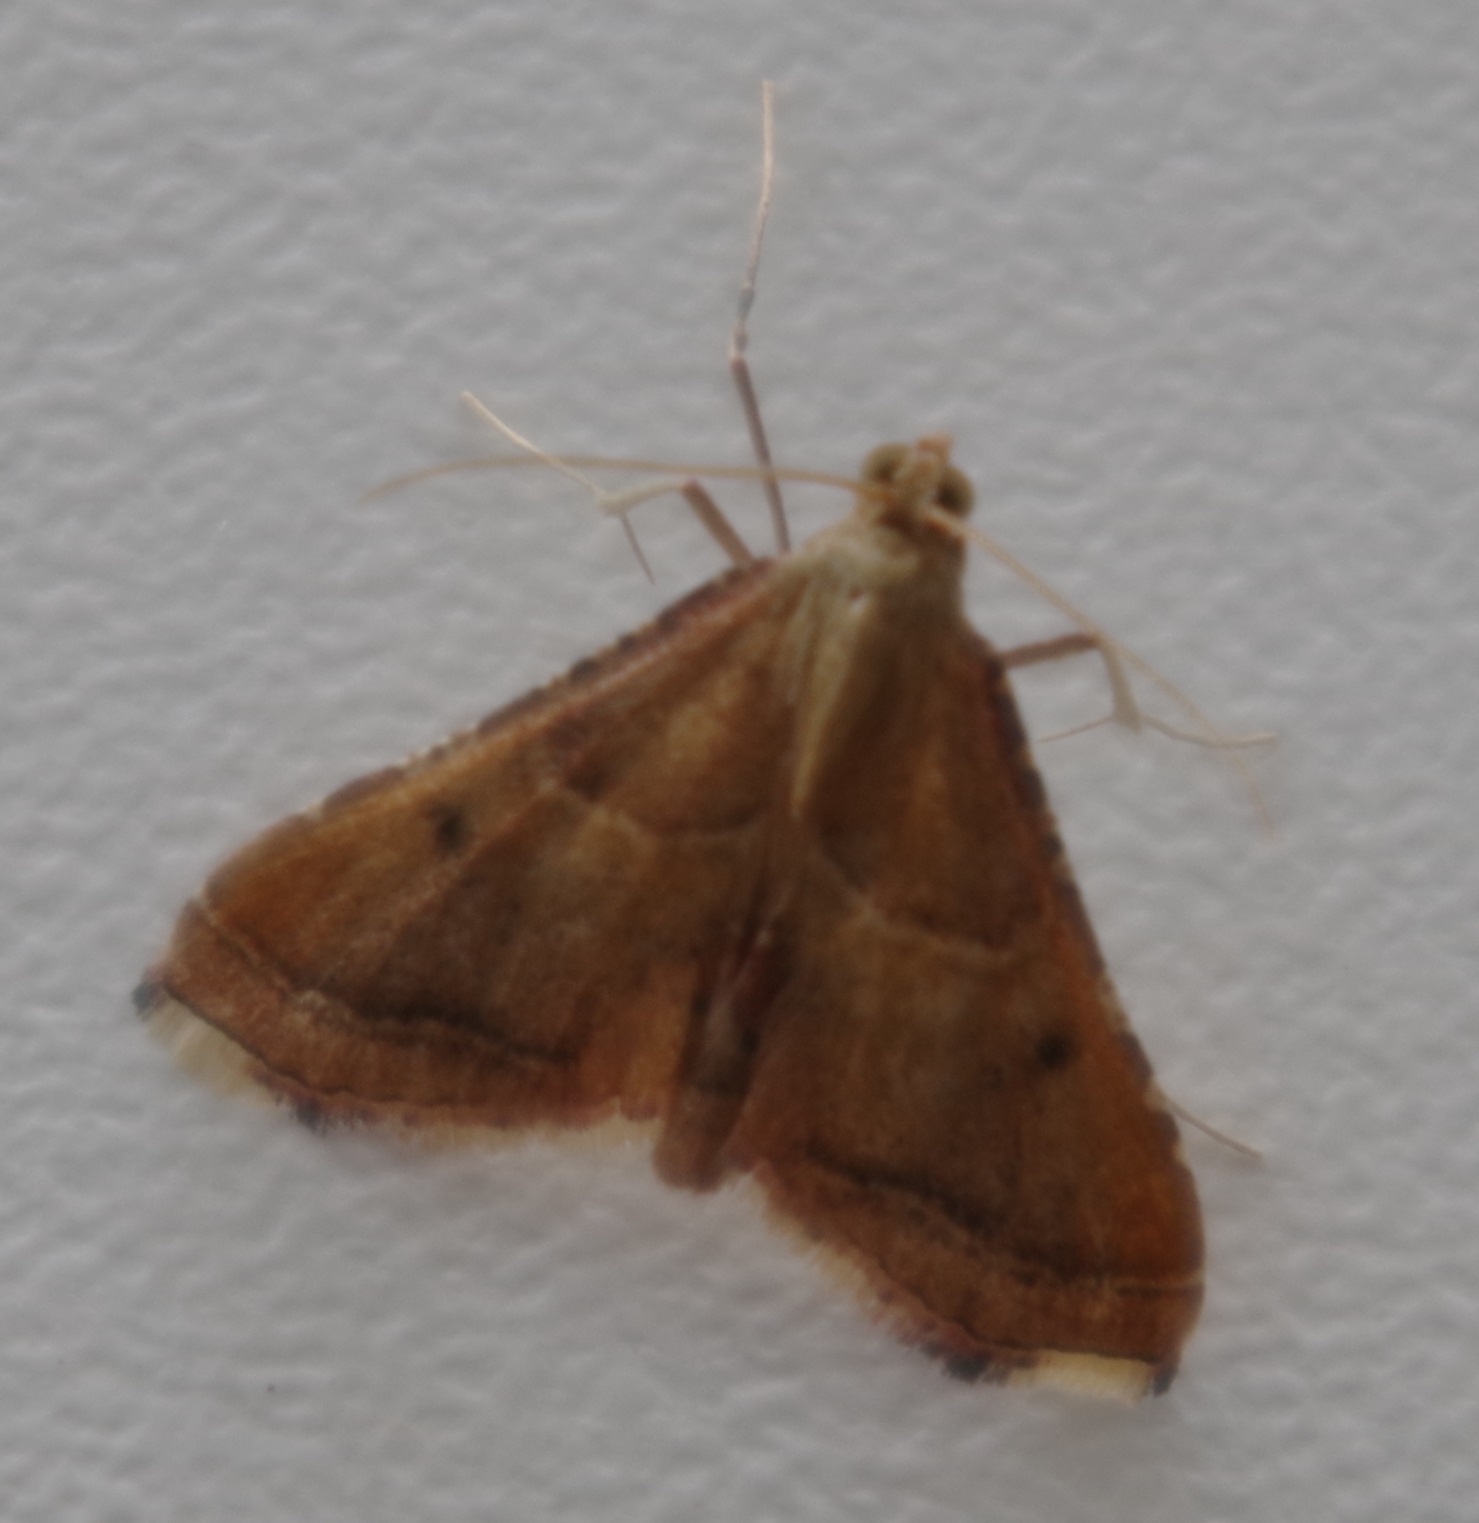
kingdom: Animalia
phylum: Arthropoda
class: Insecta
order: Lepidoptera
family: Pyralidae
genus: Endotricha
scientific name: Endotricha flammealis
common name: Rosy tabby
